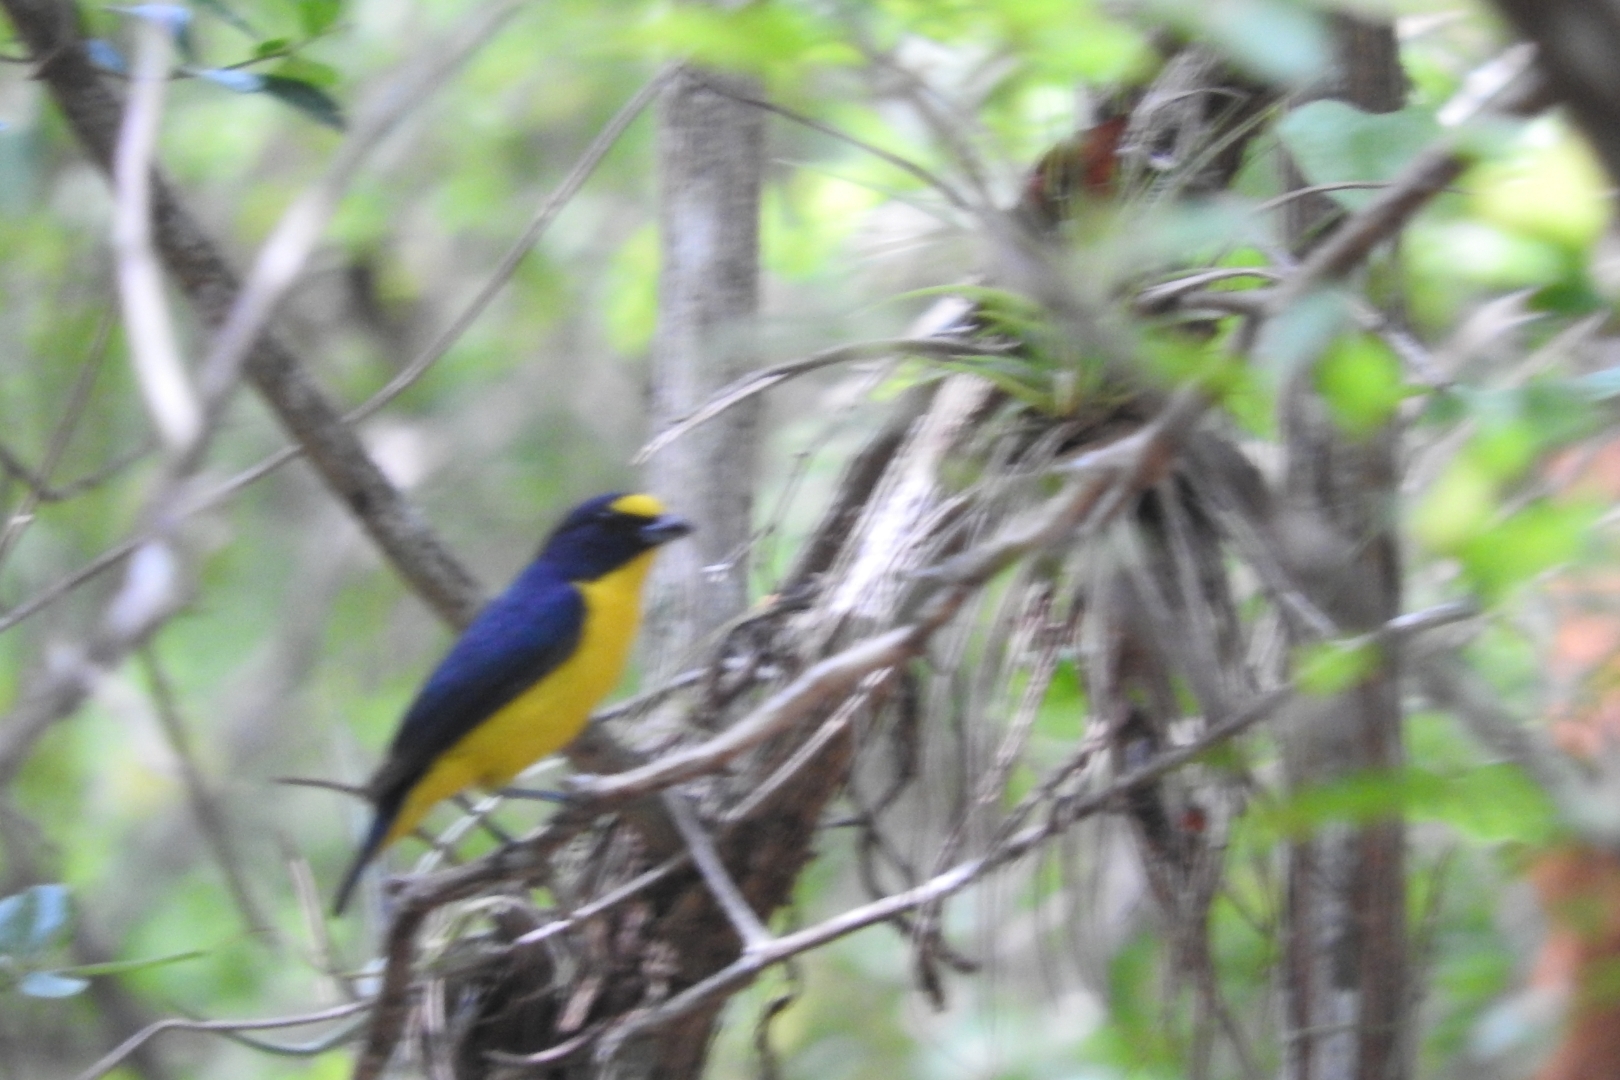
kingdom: Animalia
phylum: Chordata
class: Aves
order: Passeriformes
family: Fringillidae
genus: Euphonia
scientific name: Euphonia hirundinacea
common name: Yellow-throated euphonia
